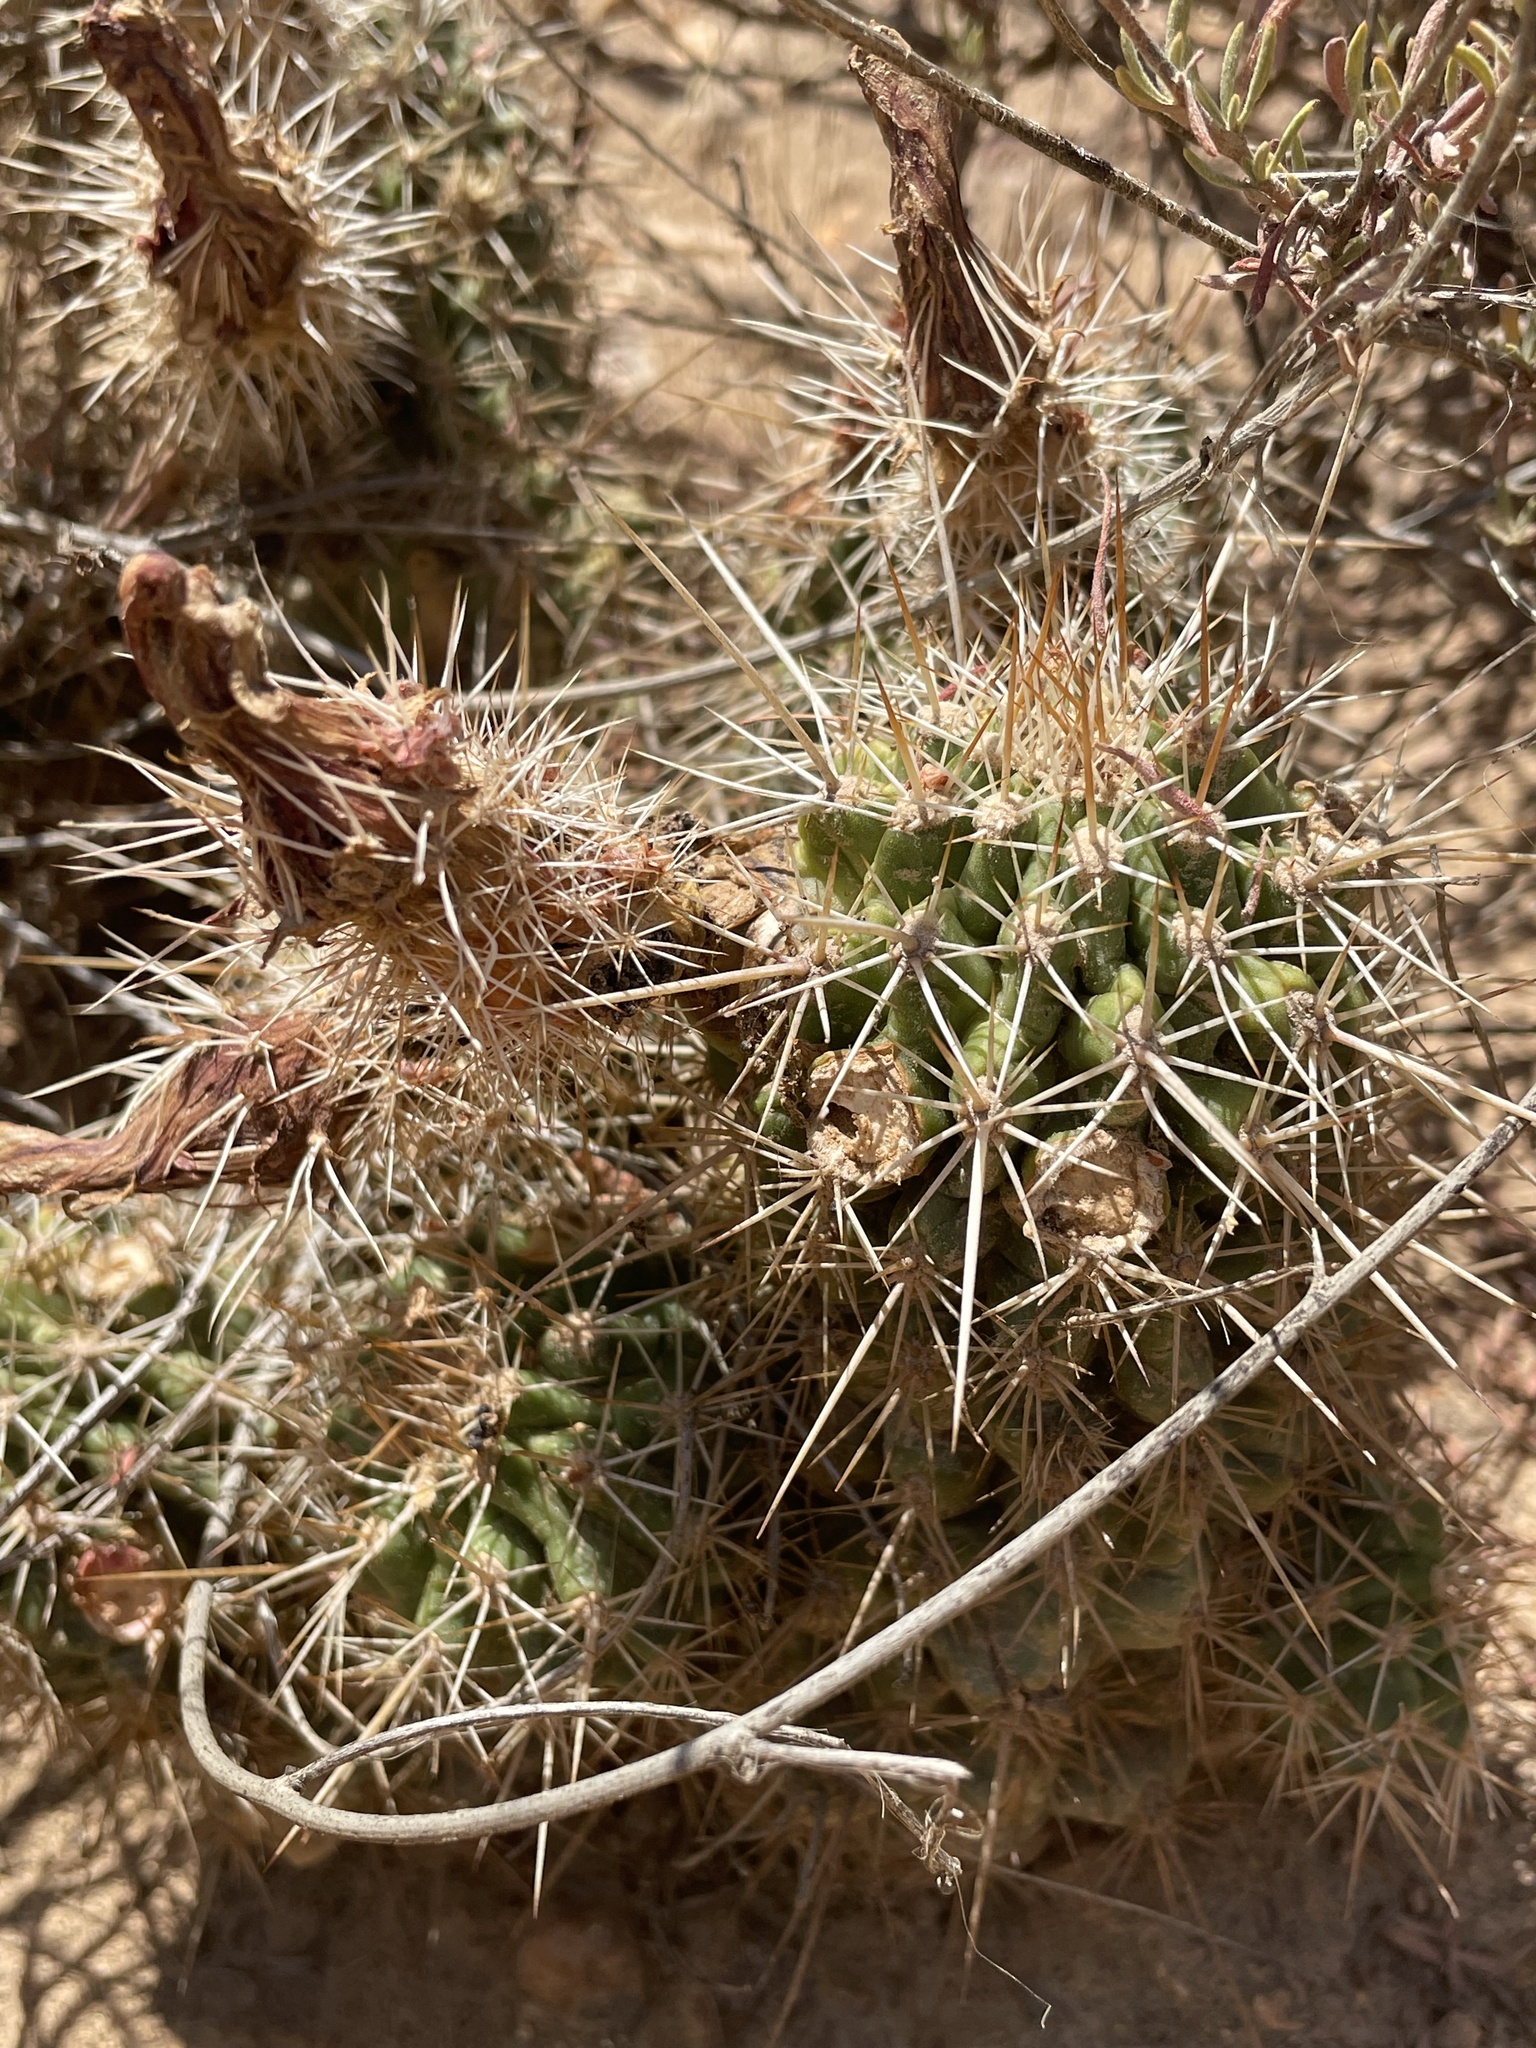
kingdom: Plantae
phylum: Tracheophyta
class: Magnoliopsida
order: Caryophyllales
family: Cactaceae
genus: Echinocereus
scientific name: Echinocereus fasciculatus
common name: Bundle hedgehog
